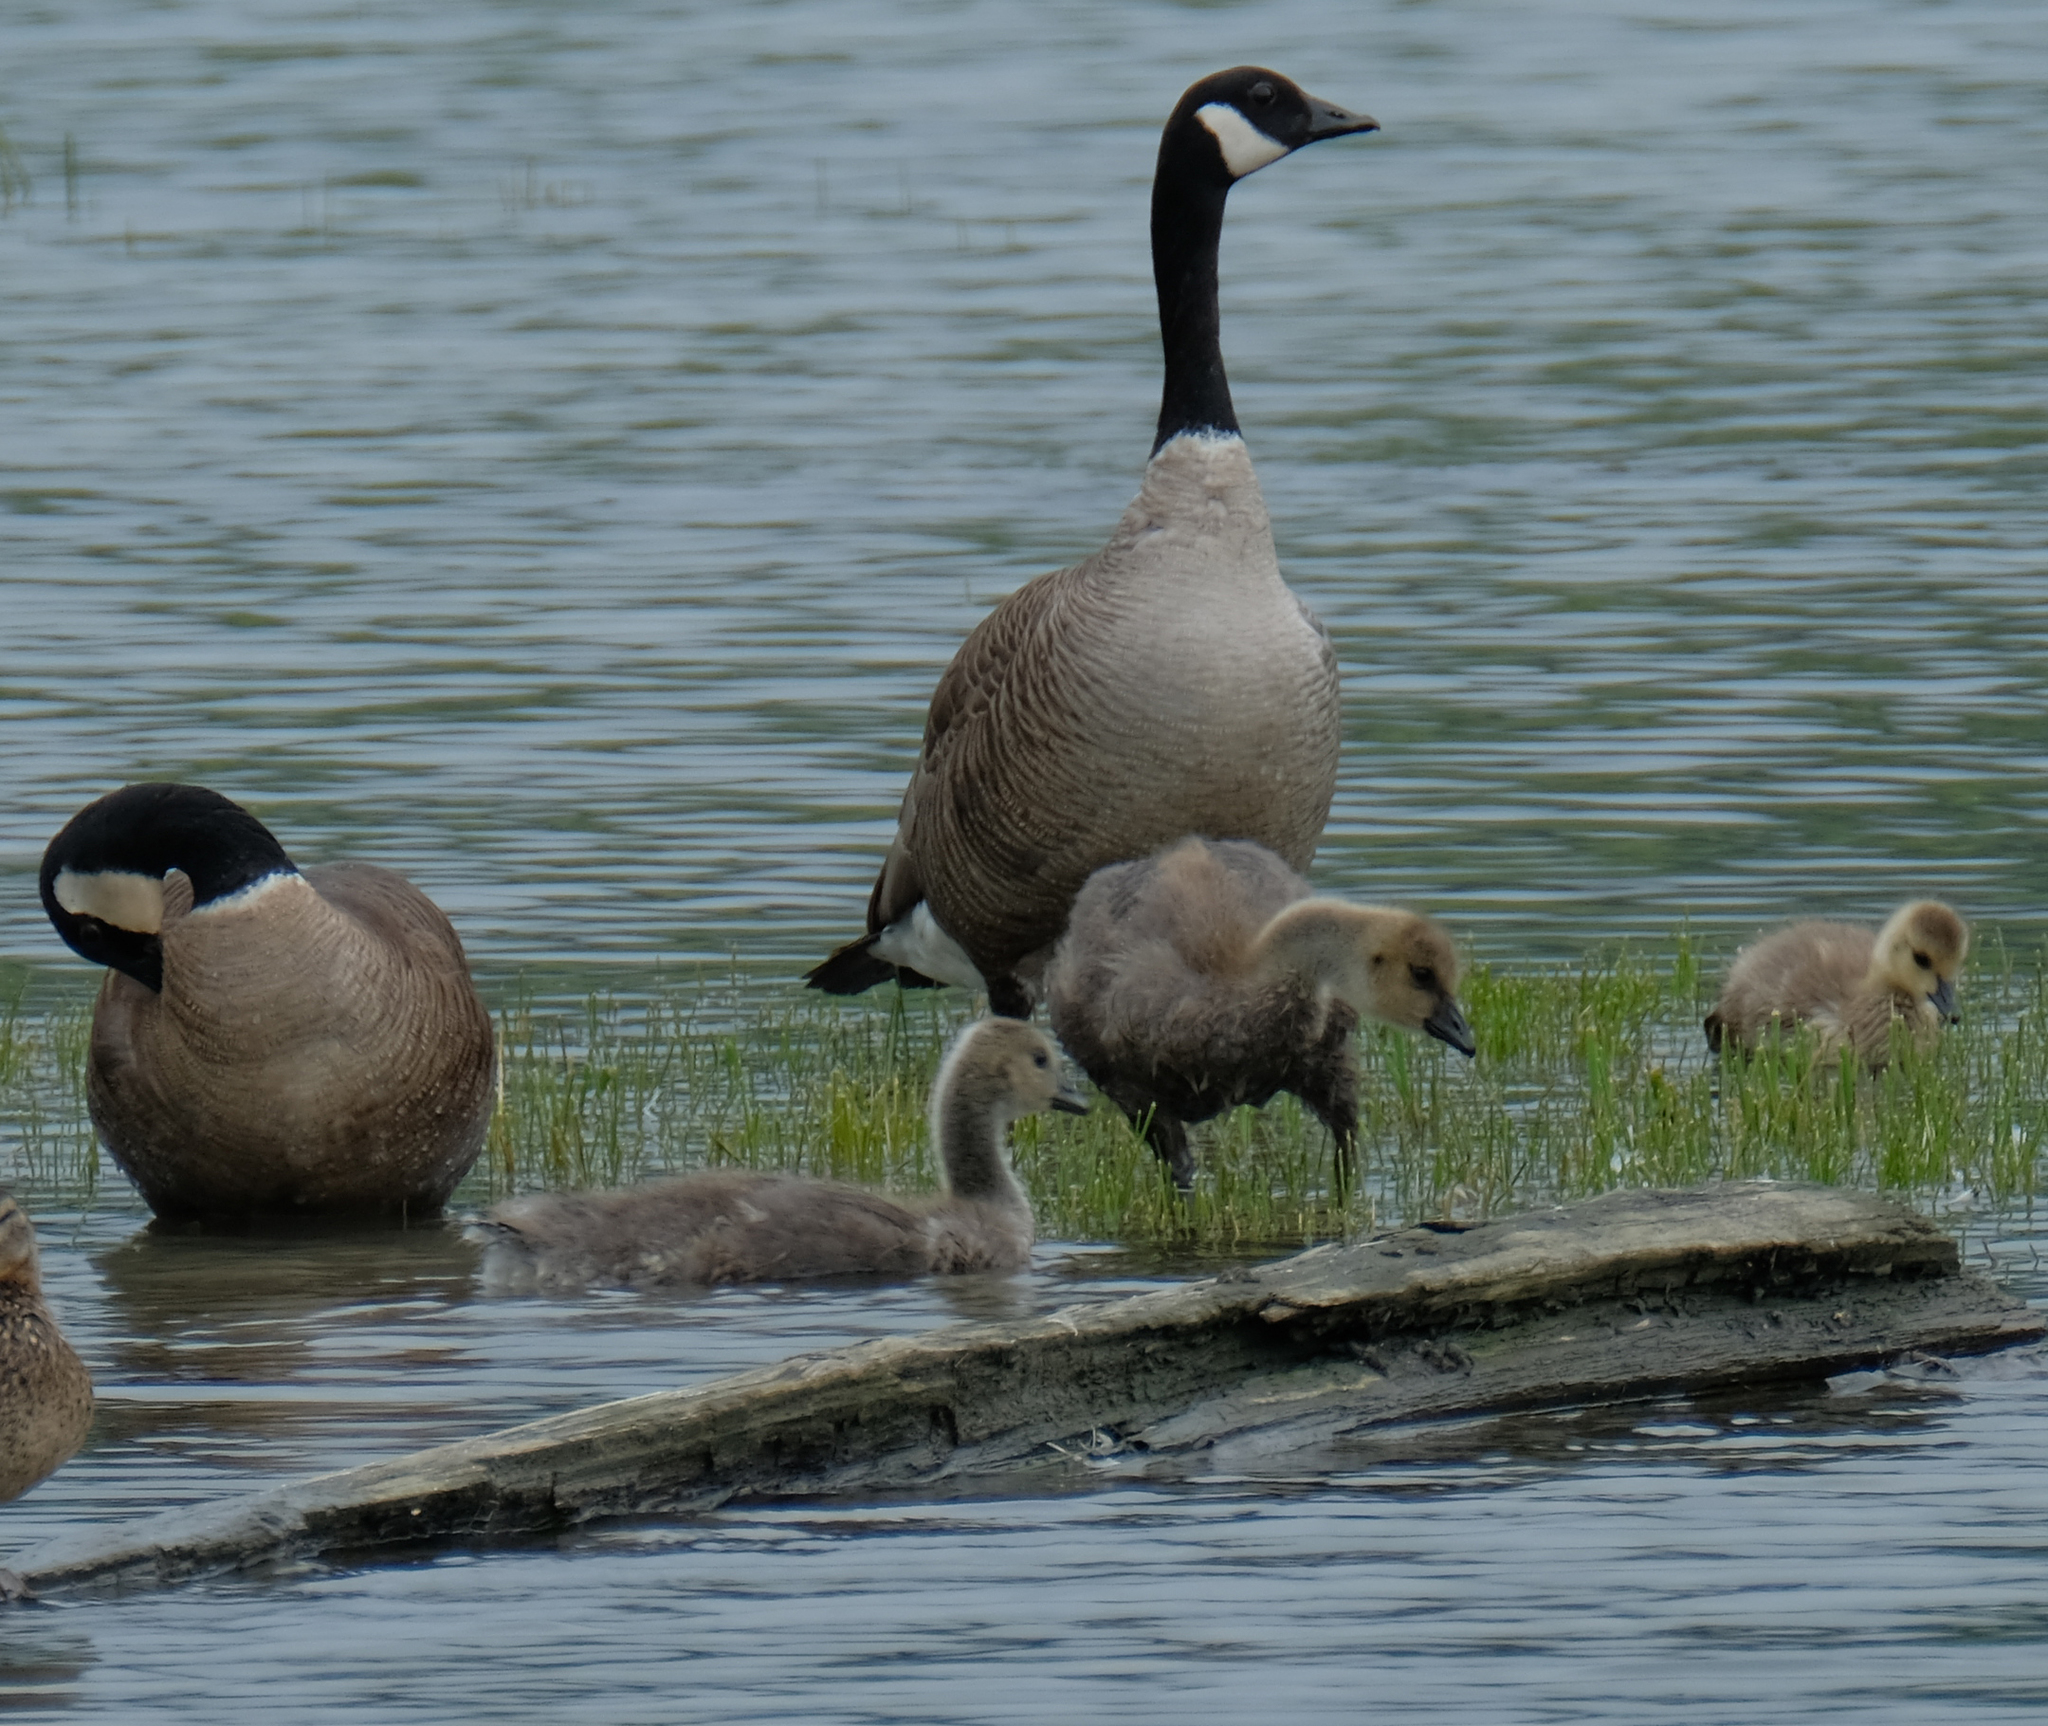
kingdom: Animalia
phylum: Chordata
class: Aves
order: Anseriformes
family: Anatidae
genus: Branta
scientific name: Branta canadensis
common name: Canada goose
